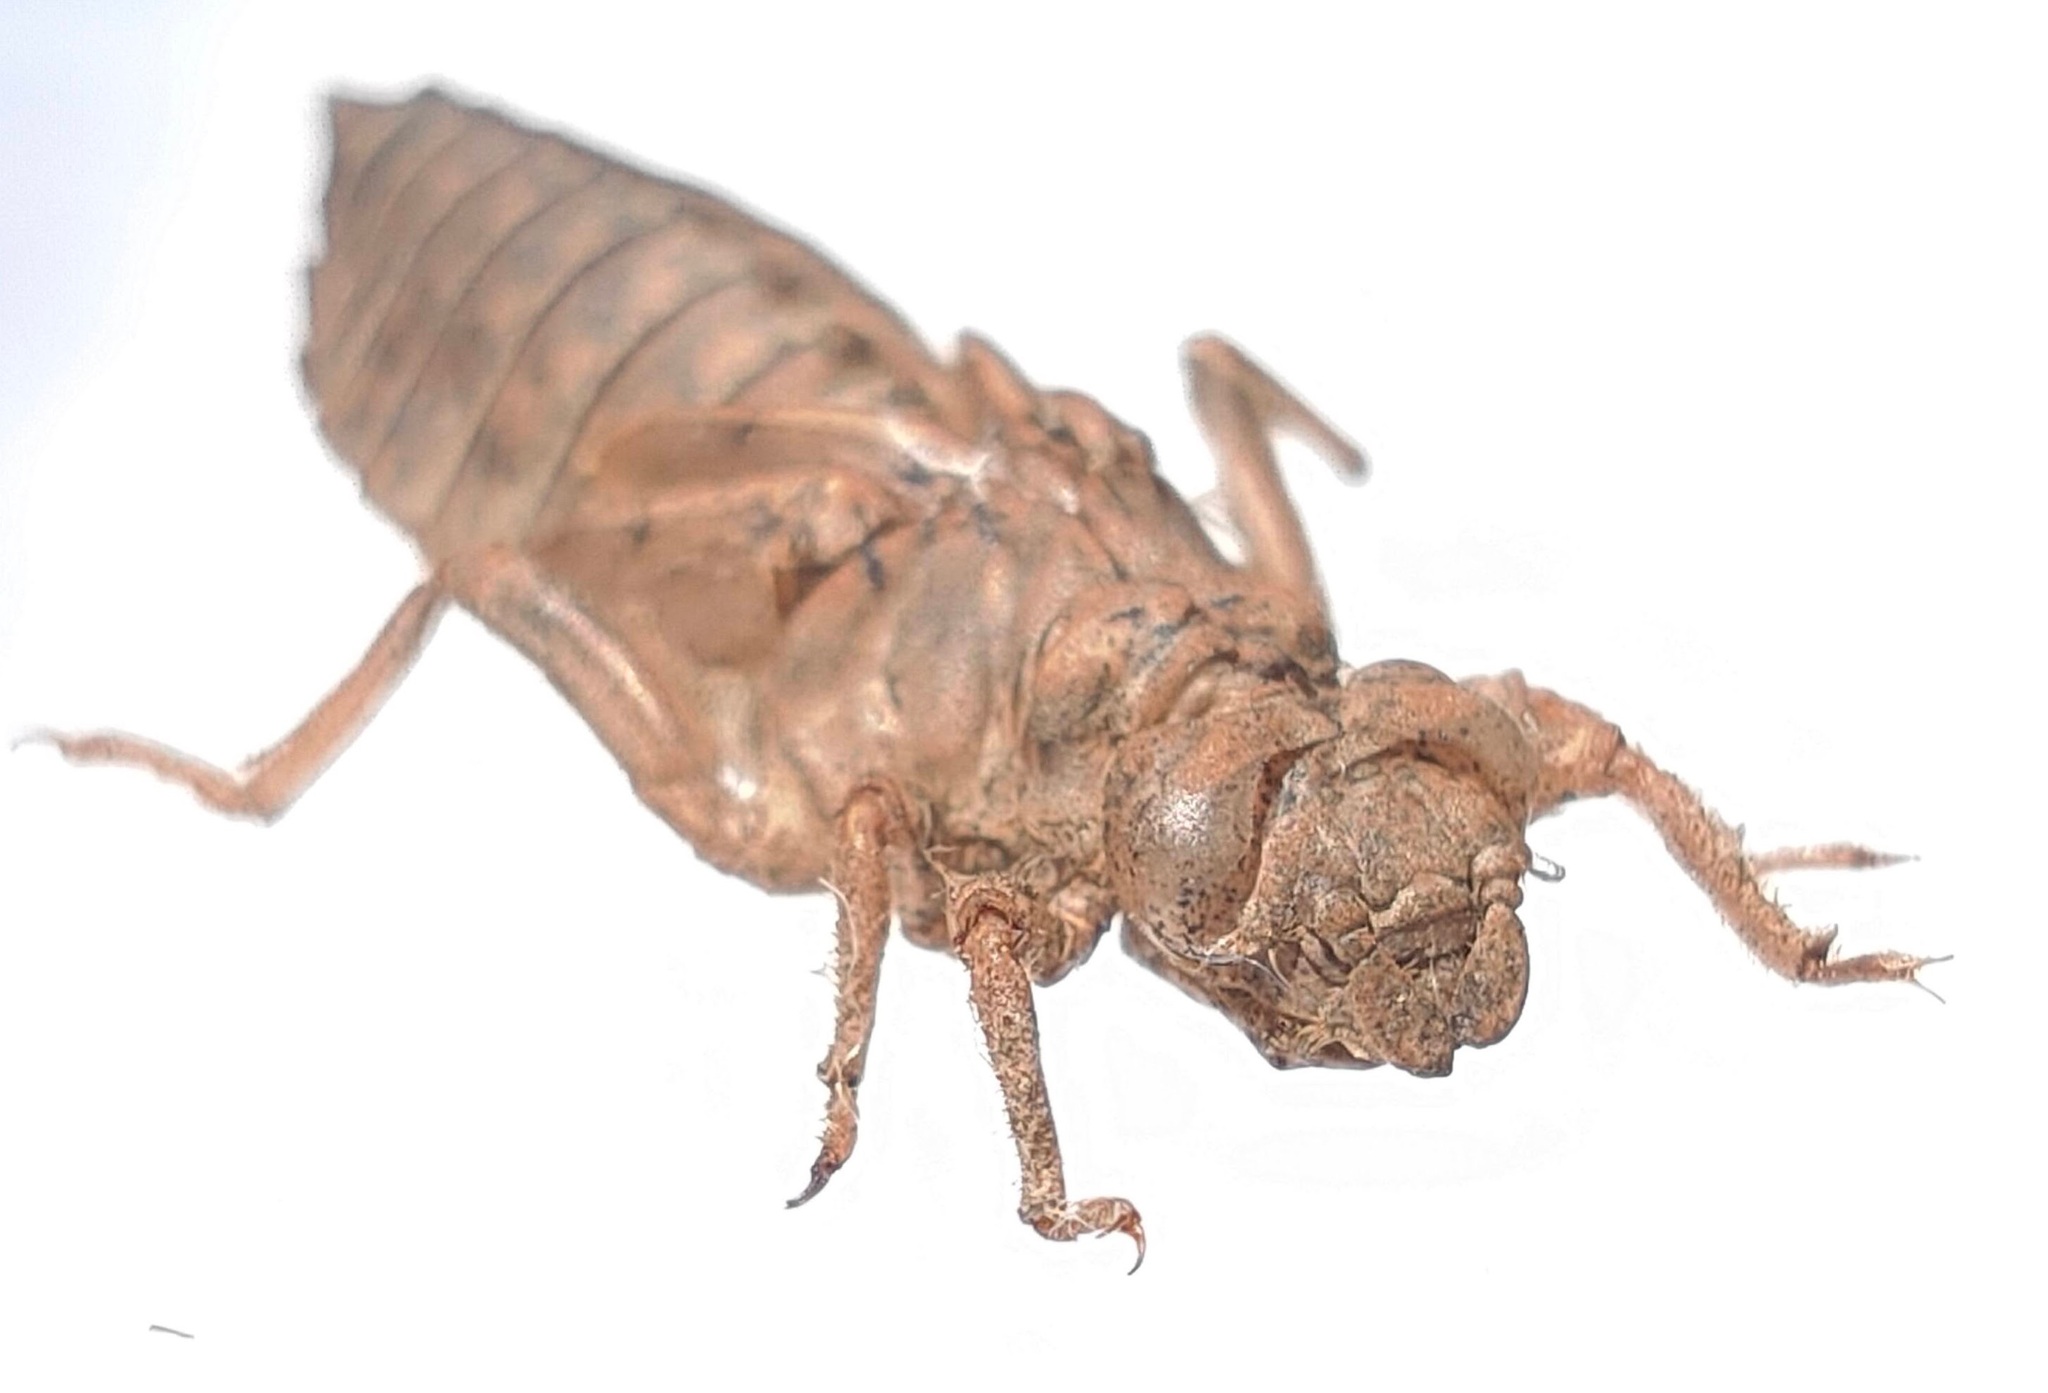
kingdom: Animalia
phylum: Arthropoda
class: Insecta
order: Odonata
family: Gomphidae
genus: Melligomphus
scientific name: Melligomphus viridicostus
